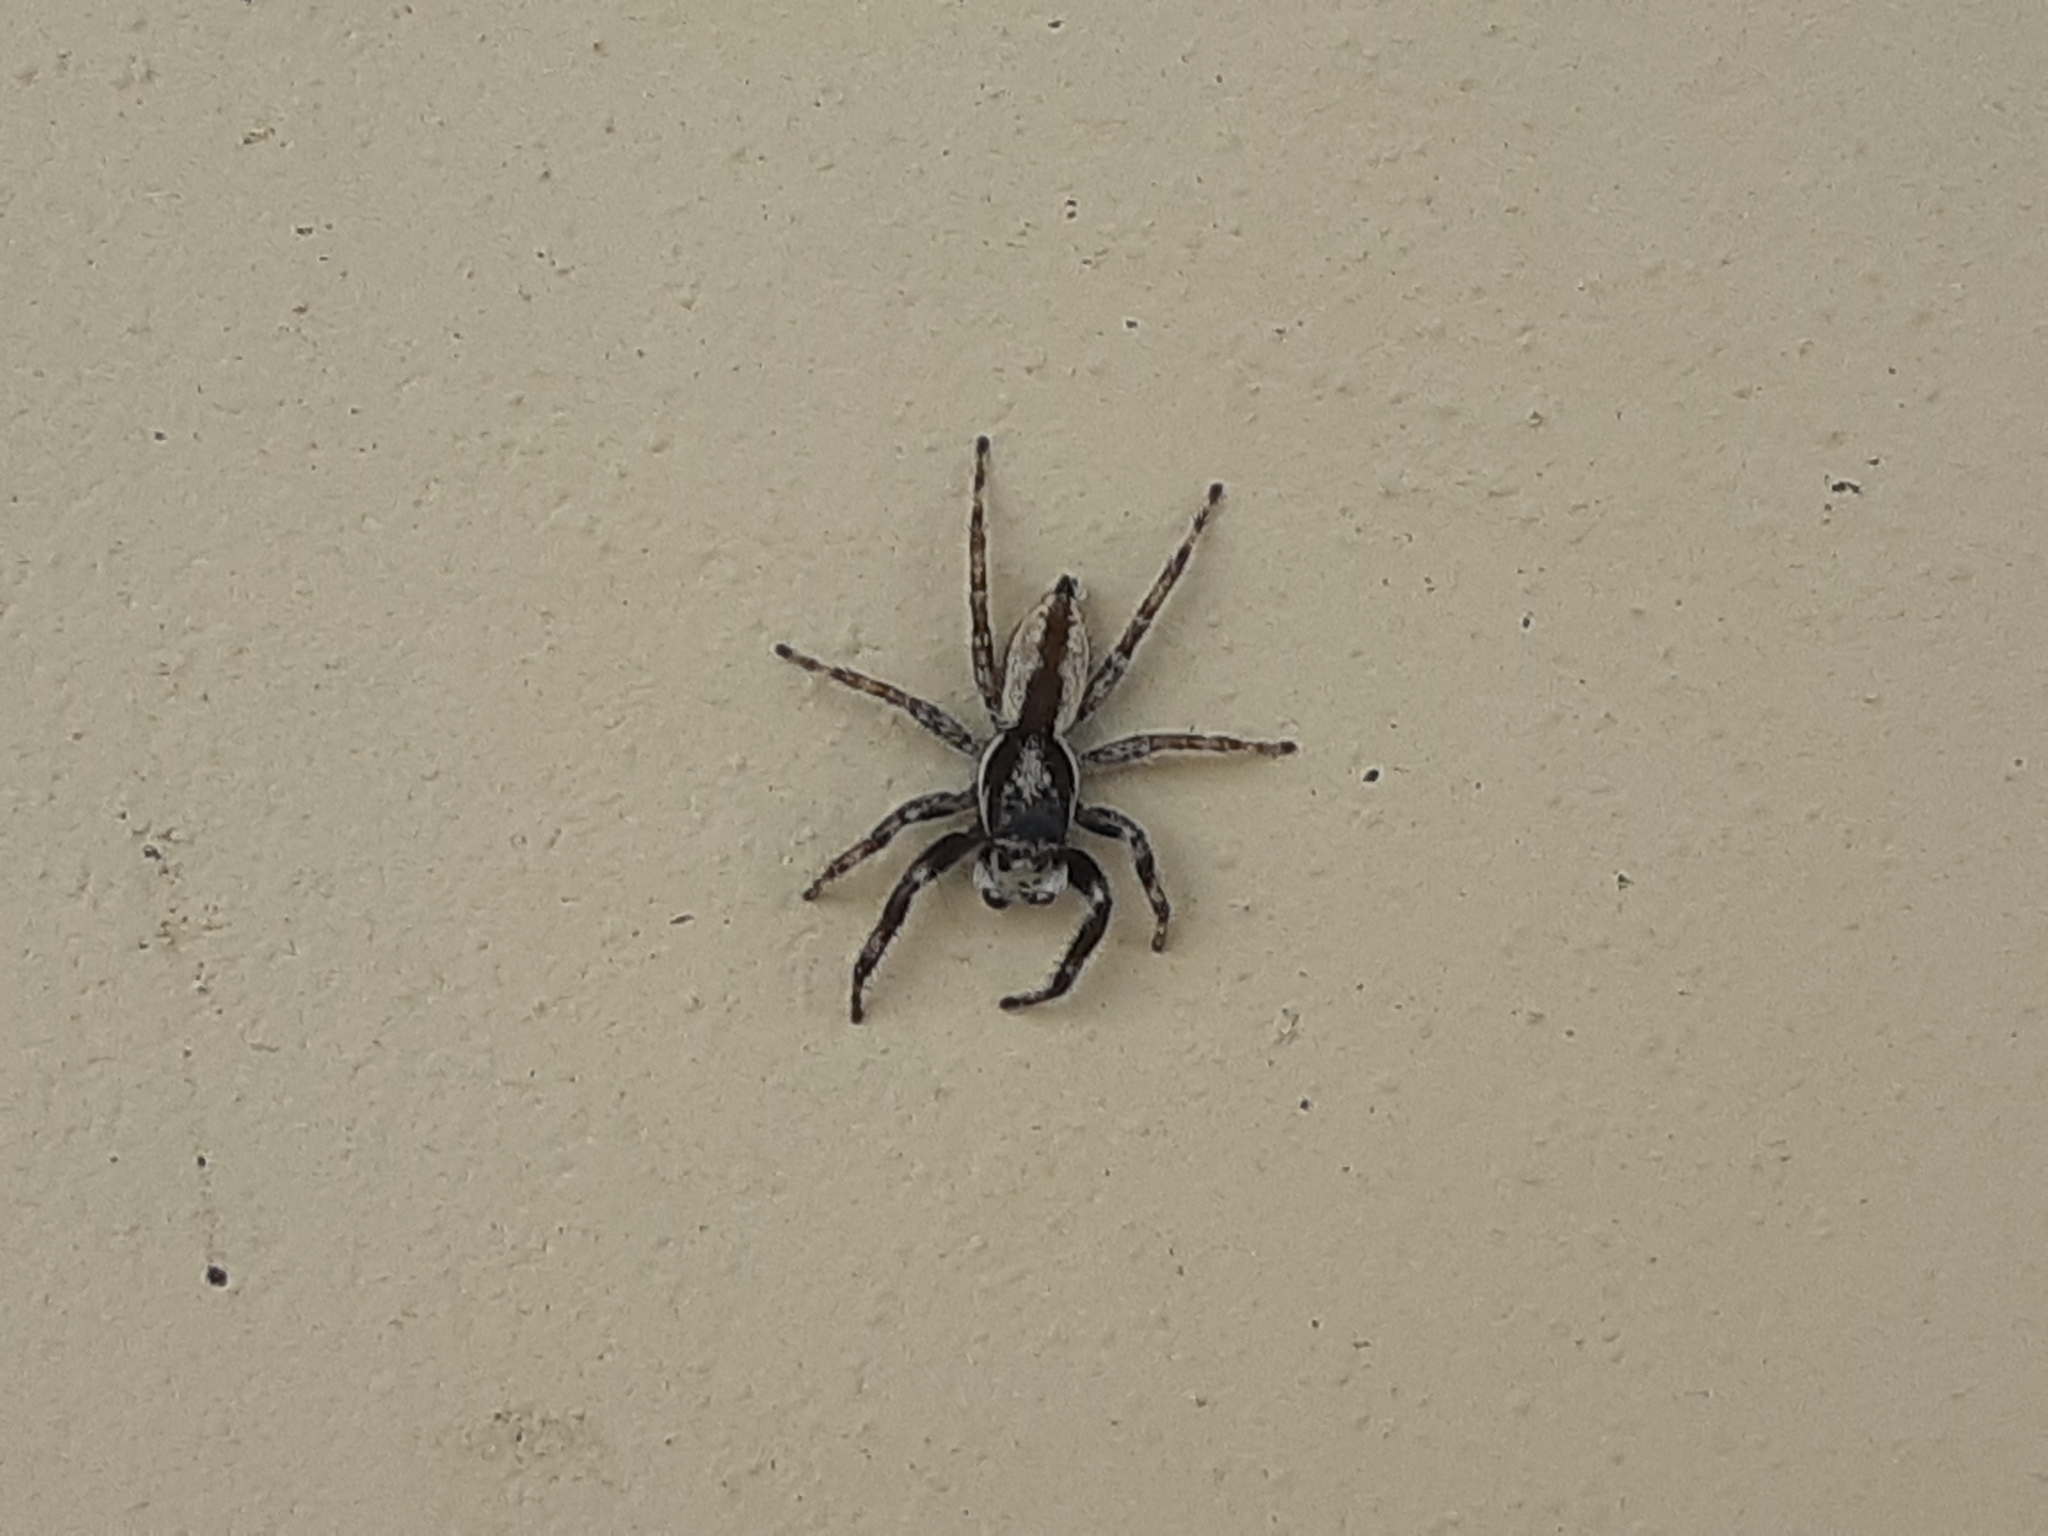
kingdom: Animalia
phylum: Arthropoda
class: Arachnida
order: Araneae
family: Salticidae
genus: Menemerus
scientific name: Menemerus bivittatus
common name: Gray wall jumper
